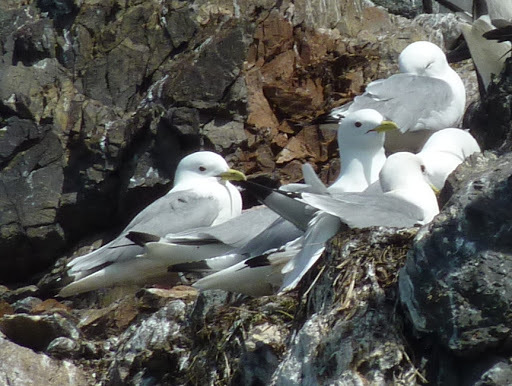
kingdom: Animalia
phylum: Chordata
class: Aves
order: Charadriiformes
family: Laridae
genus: Rissa
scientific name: Rissa tridactyla
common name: Black-legged kittiwake
